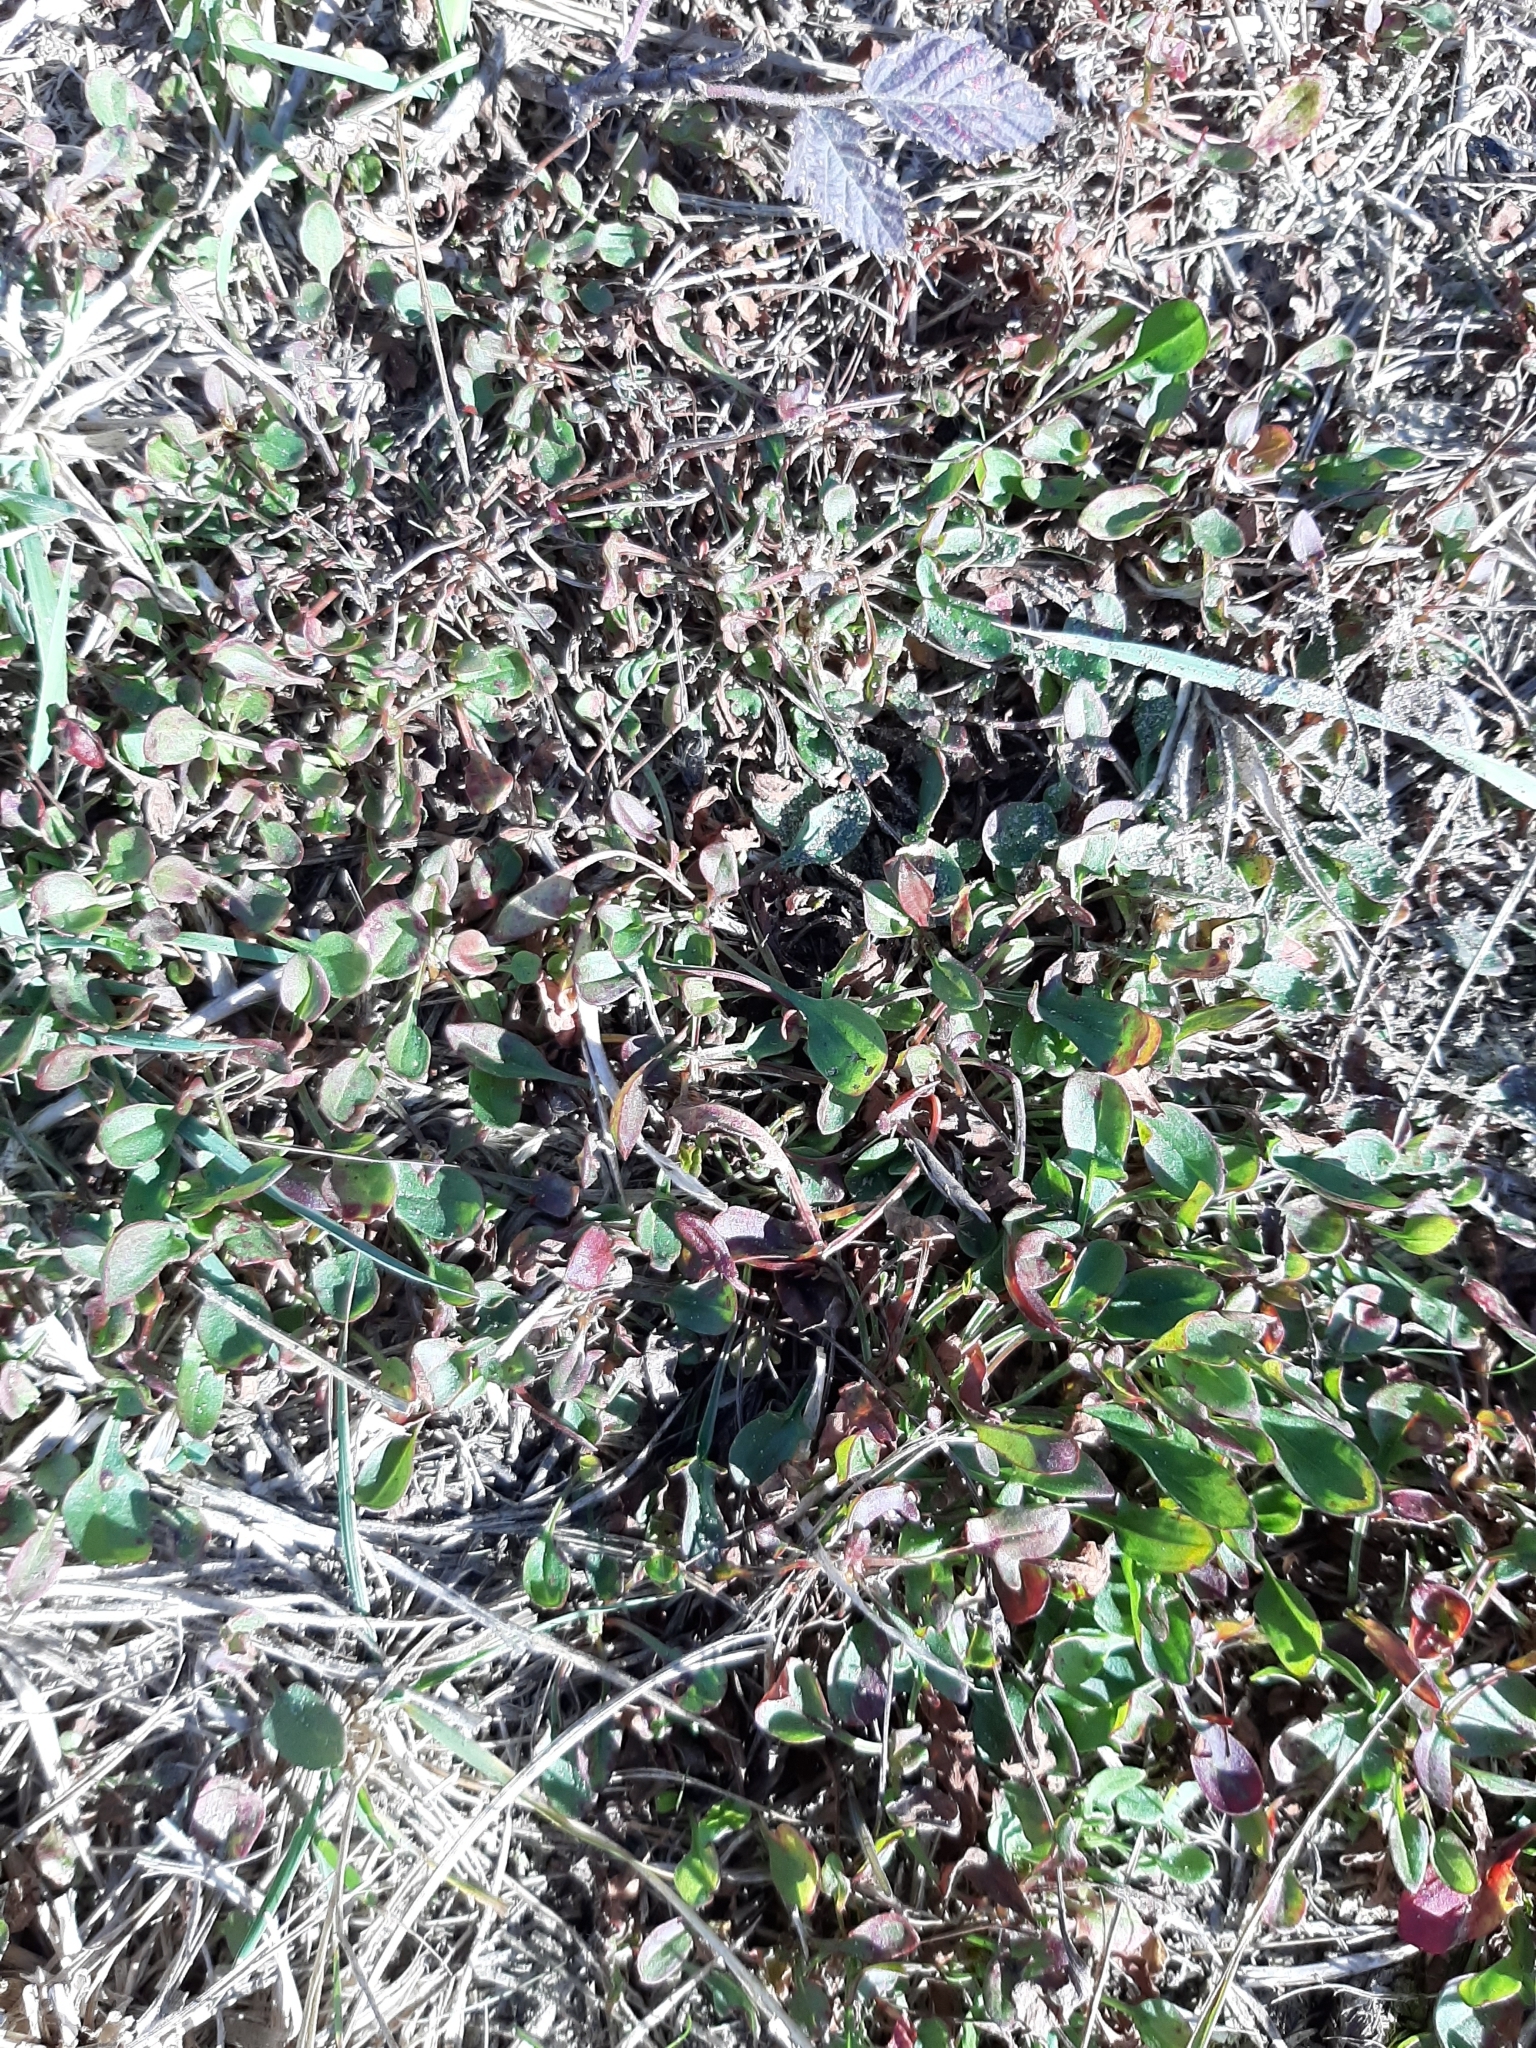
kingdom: Plantae
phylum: Tracheophyta
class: Magnoliopsida
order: Caryophyllales
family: Polygonaceae
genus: Rumex
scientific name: Rumex acetosella
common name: Common sheep sorrel
